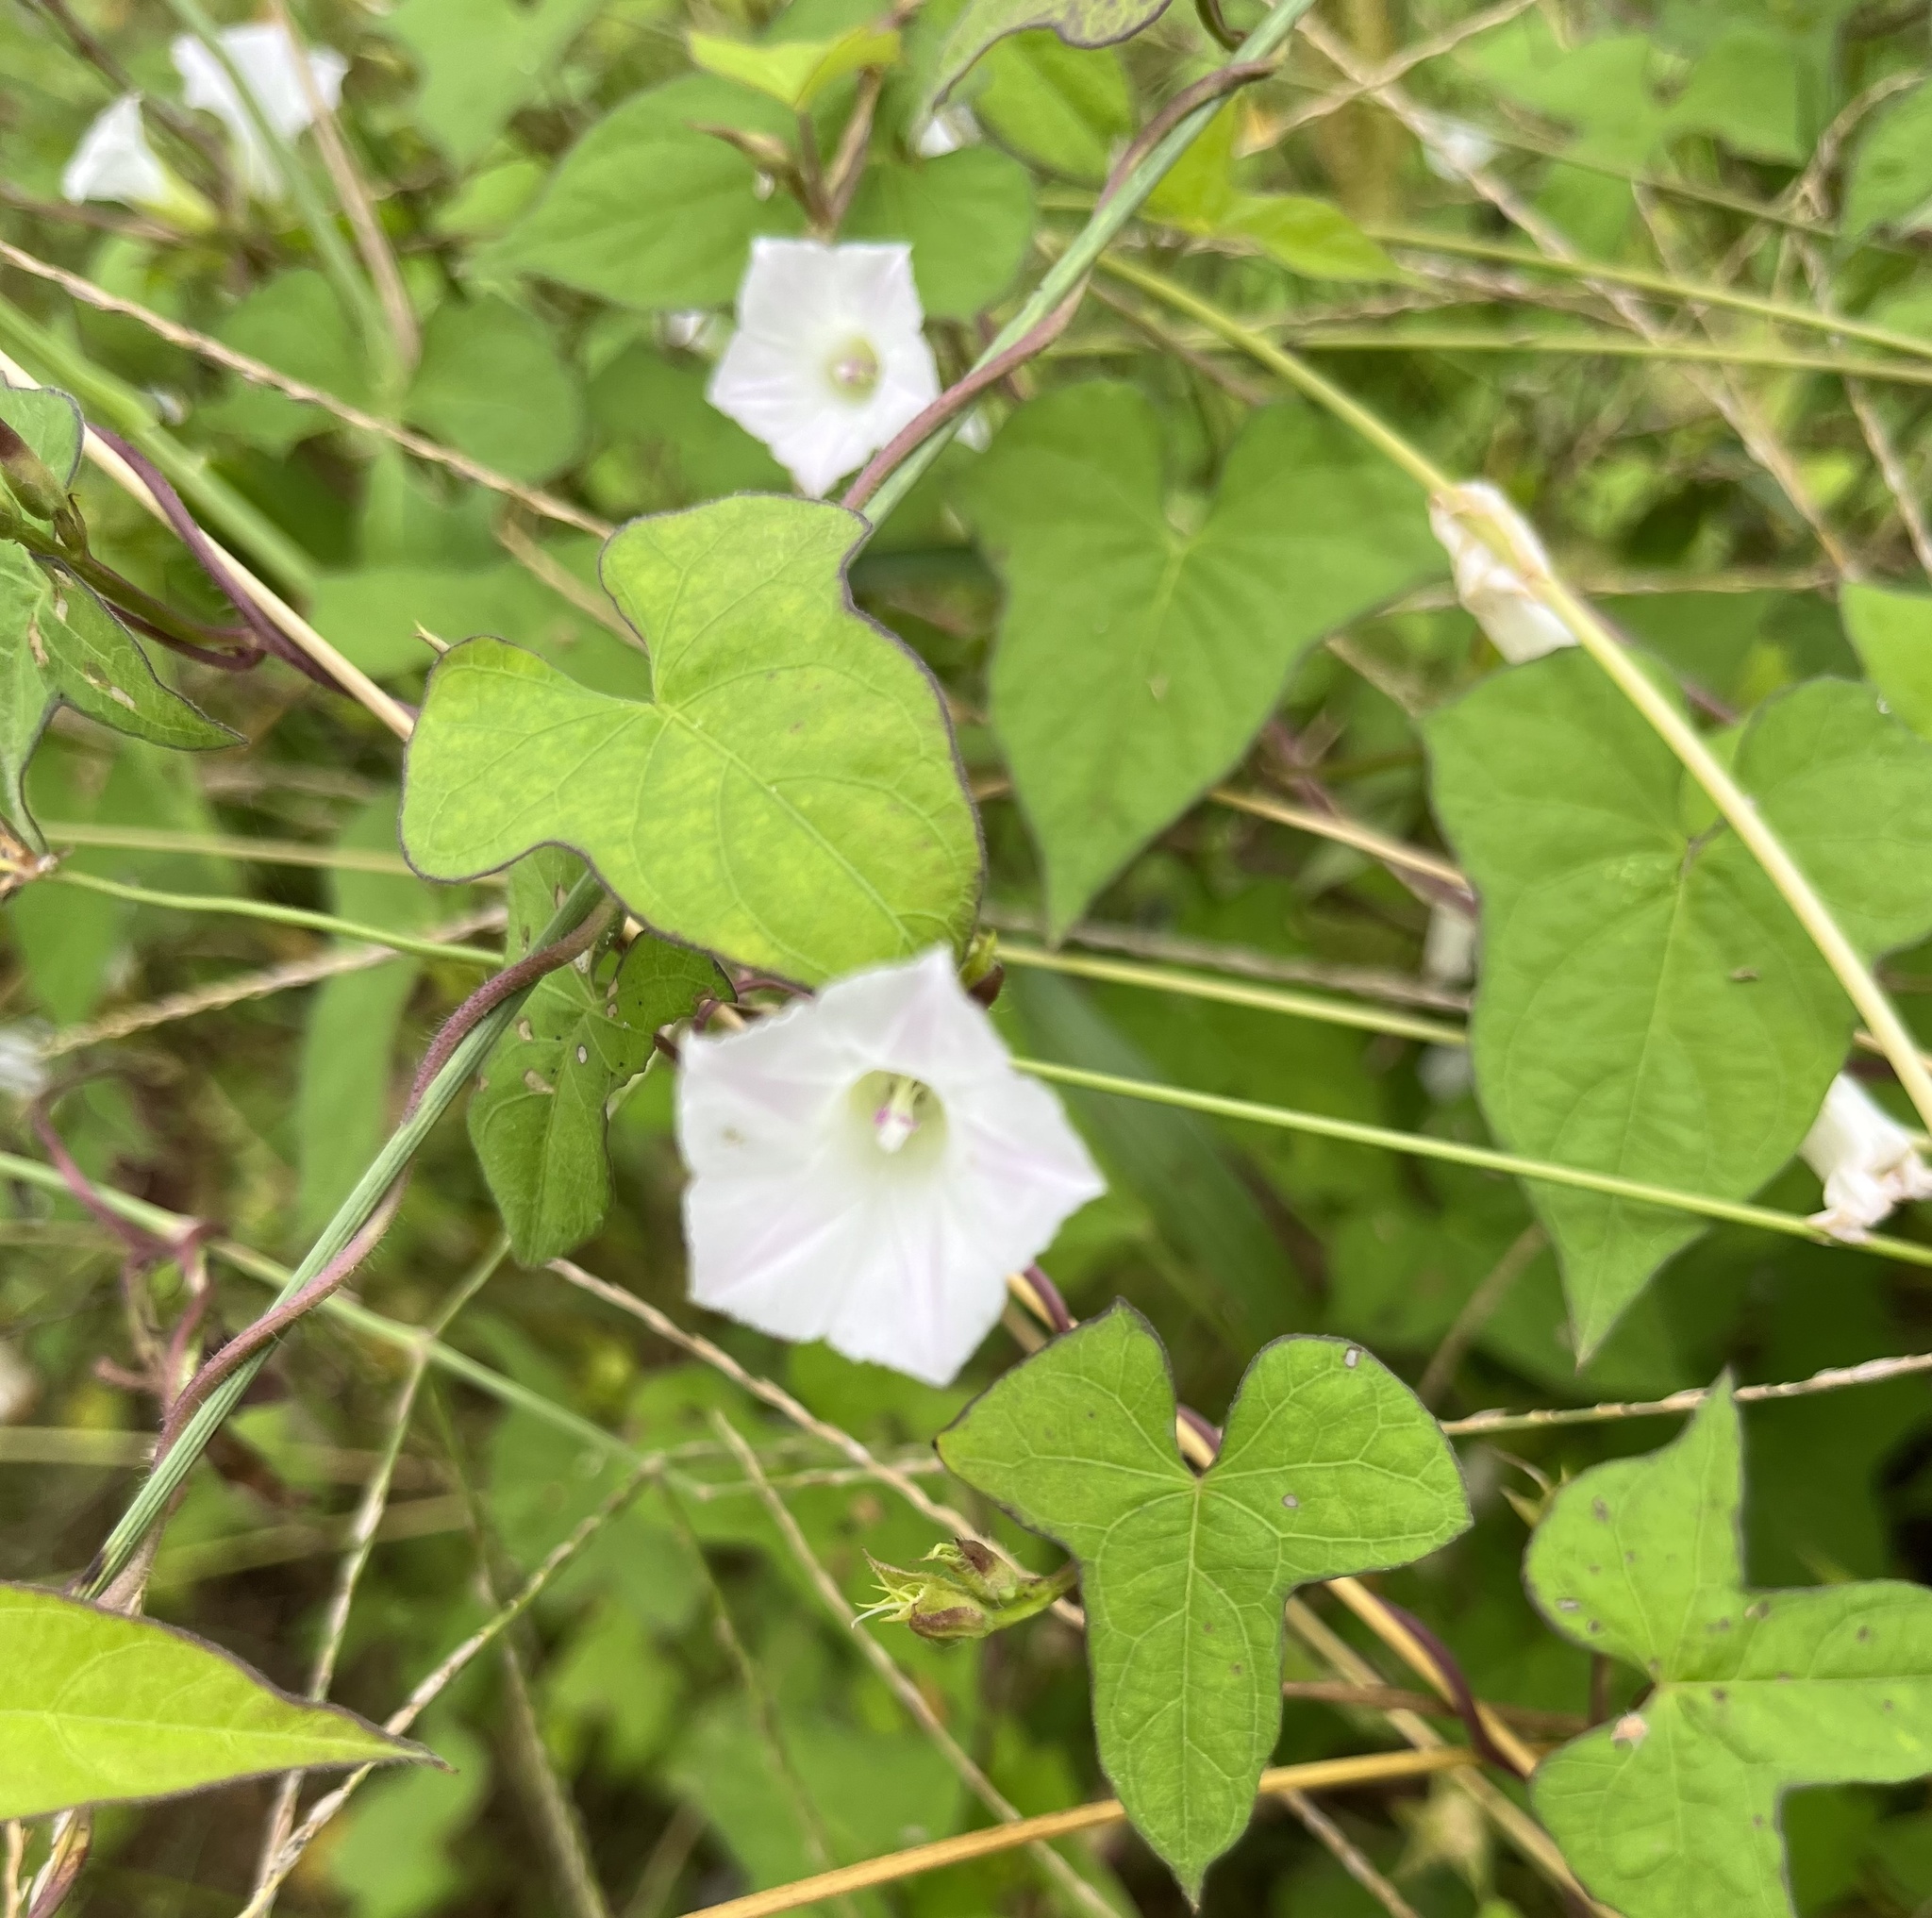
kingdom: Plantae
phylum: Tracheophyta
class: Magnoliopsida
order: Solanales
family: Convolvulaceae
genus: Ipomoea
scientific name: Ipomoea lacunosa
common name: White morning-glory
